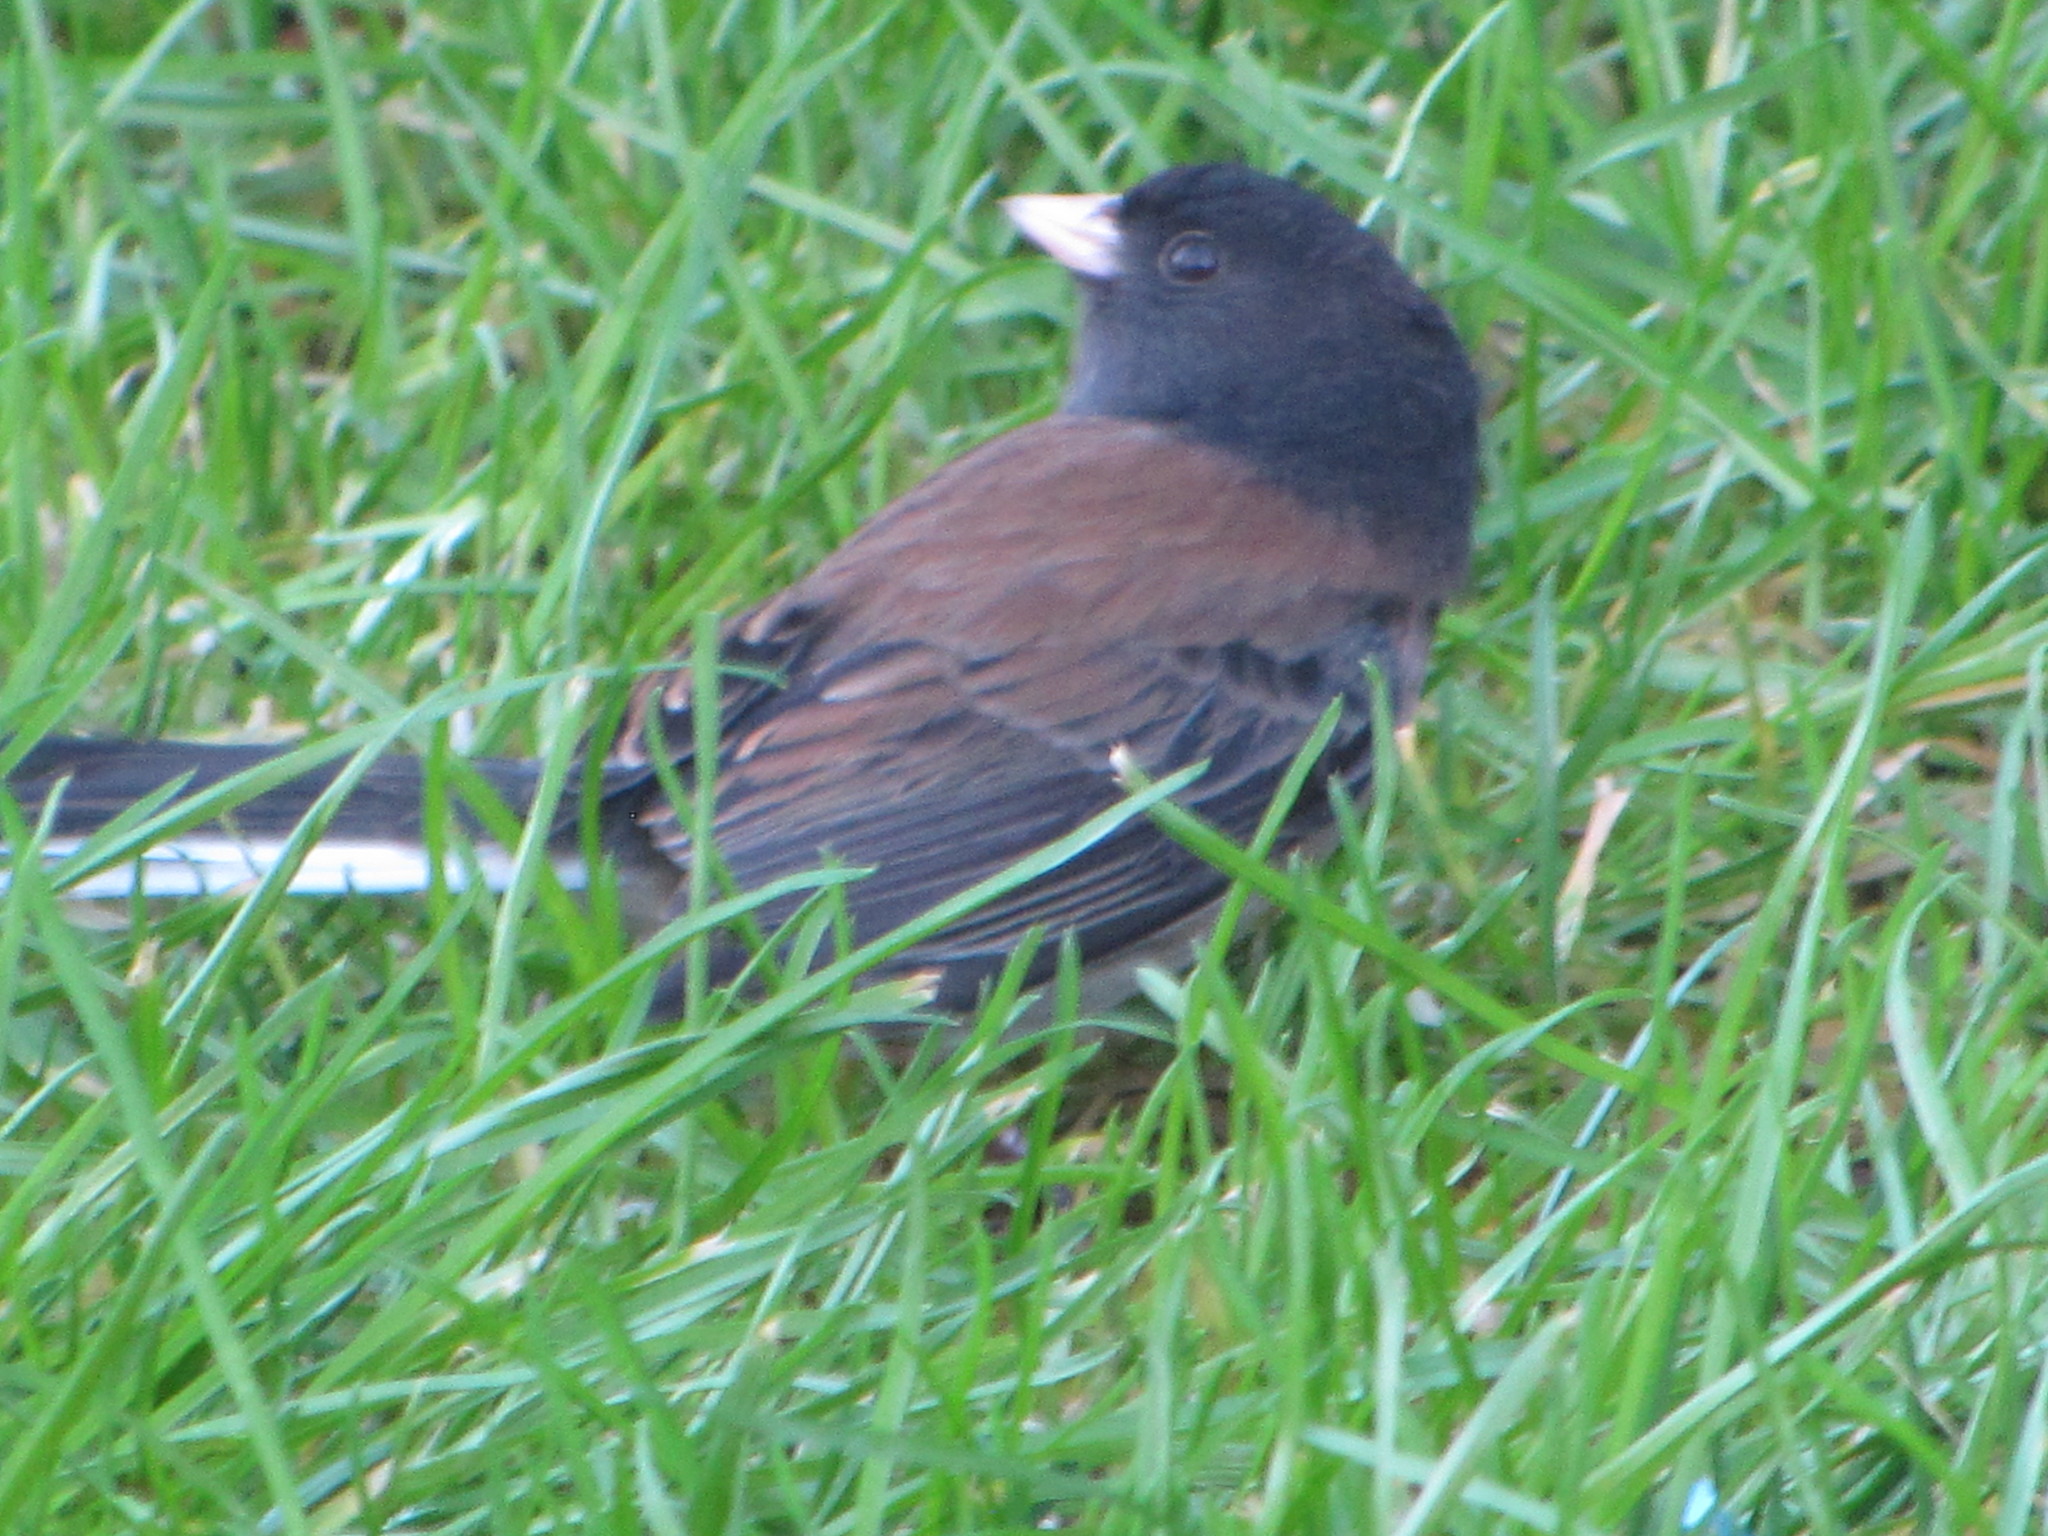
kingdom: Animalia
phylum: Chordata
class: Aves
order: Passeriformes
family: Passerellidae
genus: Junco
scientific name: Junco hyemalis
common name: Dark-eyed junco
